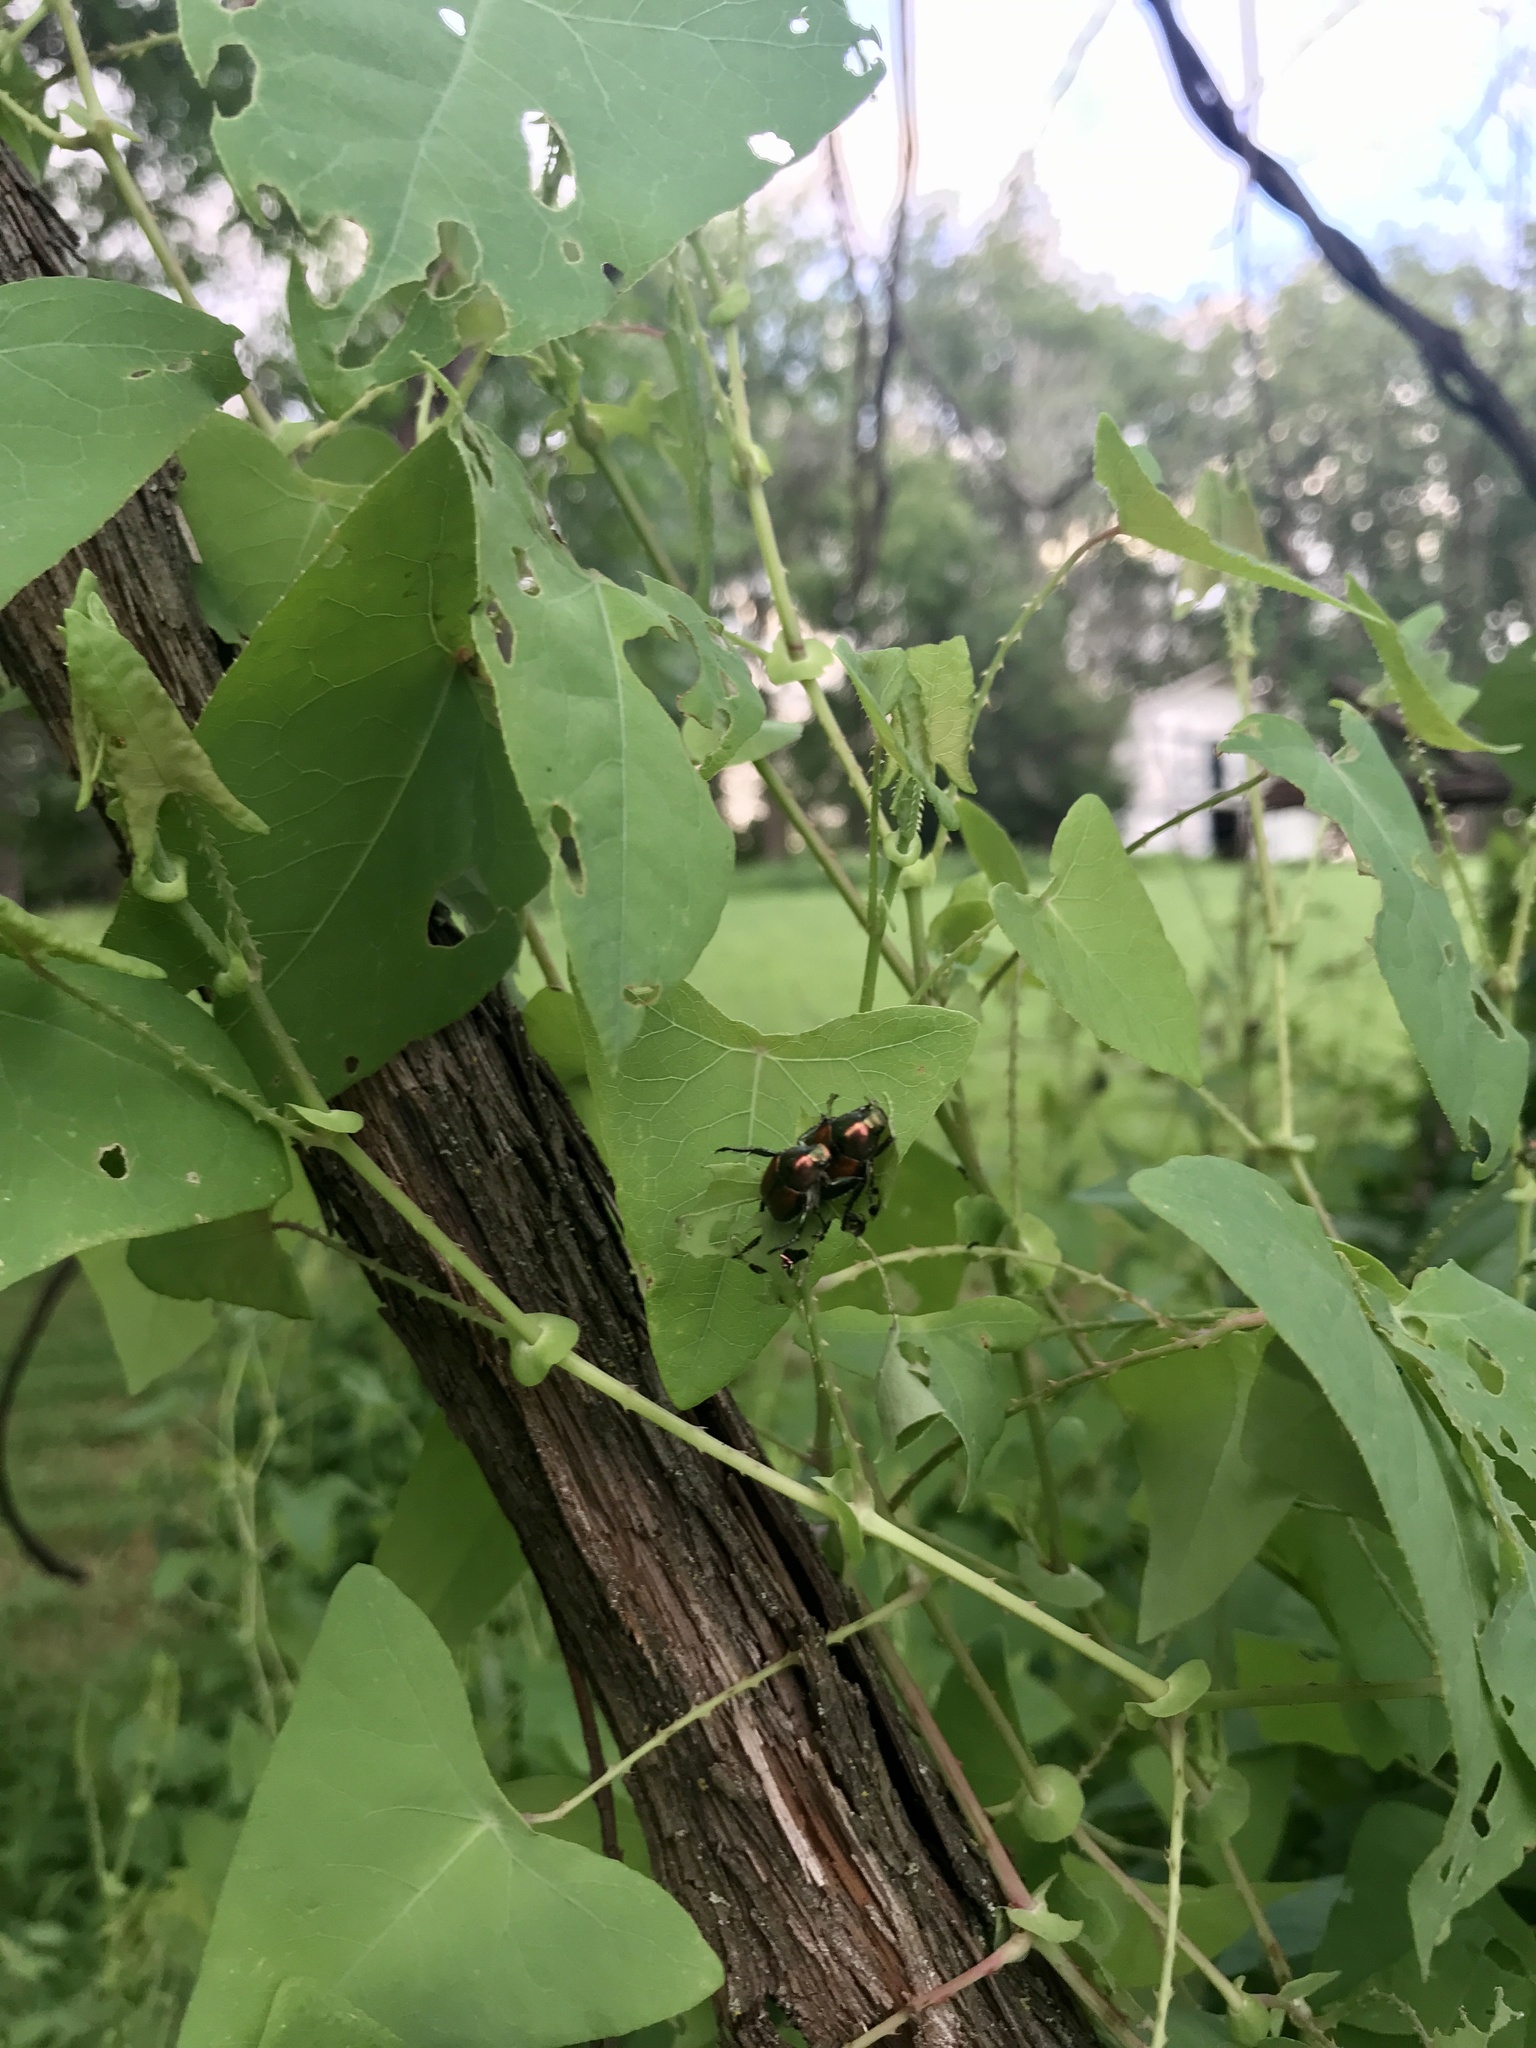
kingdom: Animalia
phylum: Arthropoda
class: Insecta
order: Coleoptera
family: Scarabaeidae
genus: Popillia
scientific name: Popillia japonica
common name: Japanese beetle
